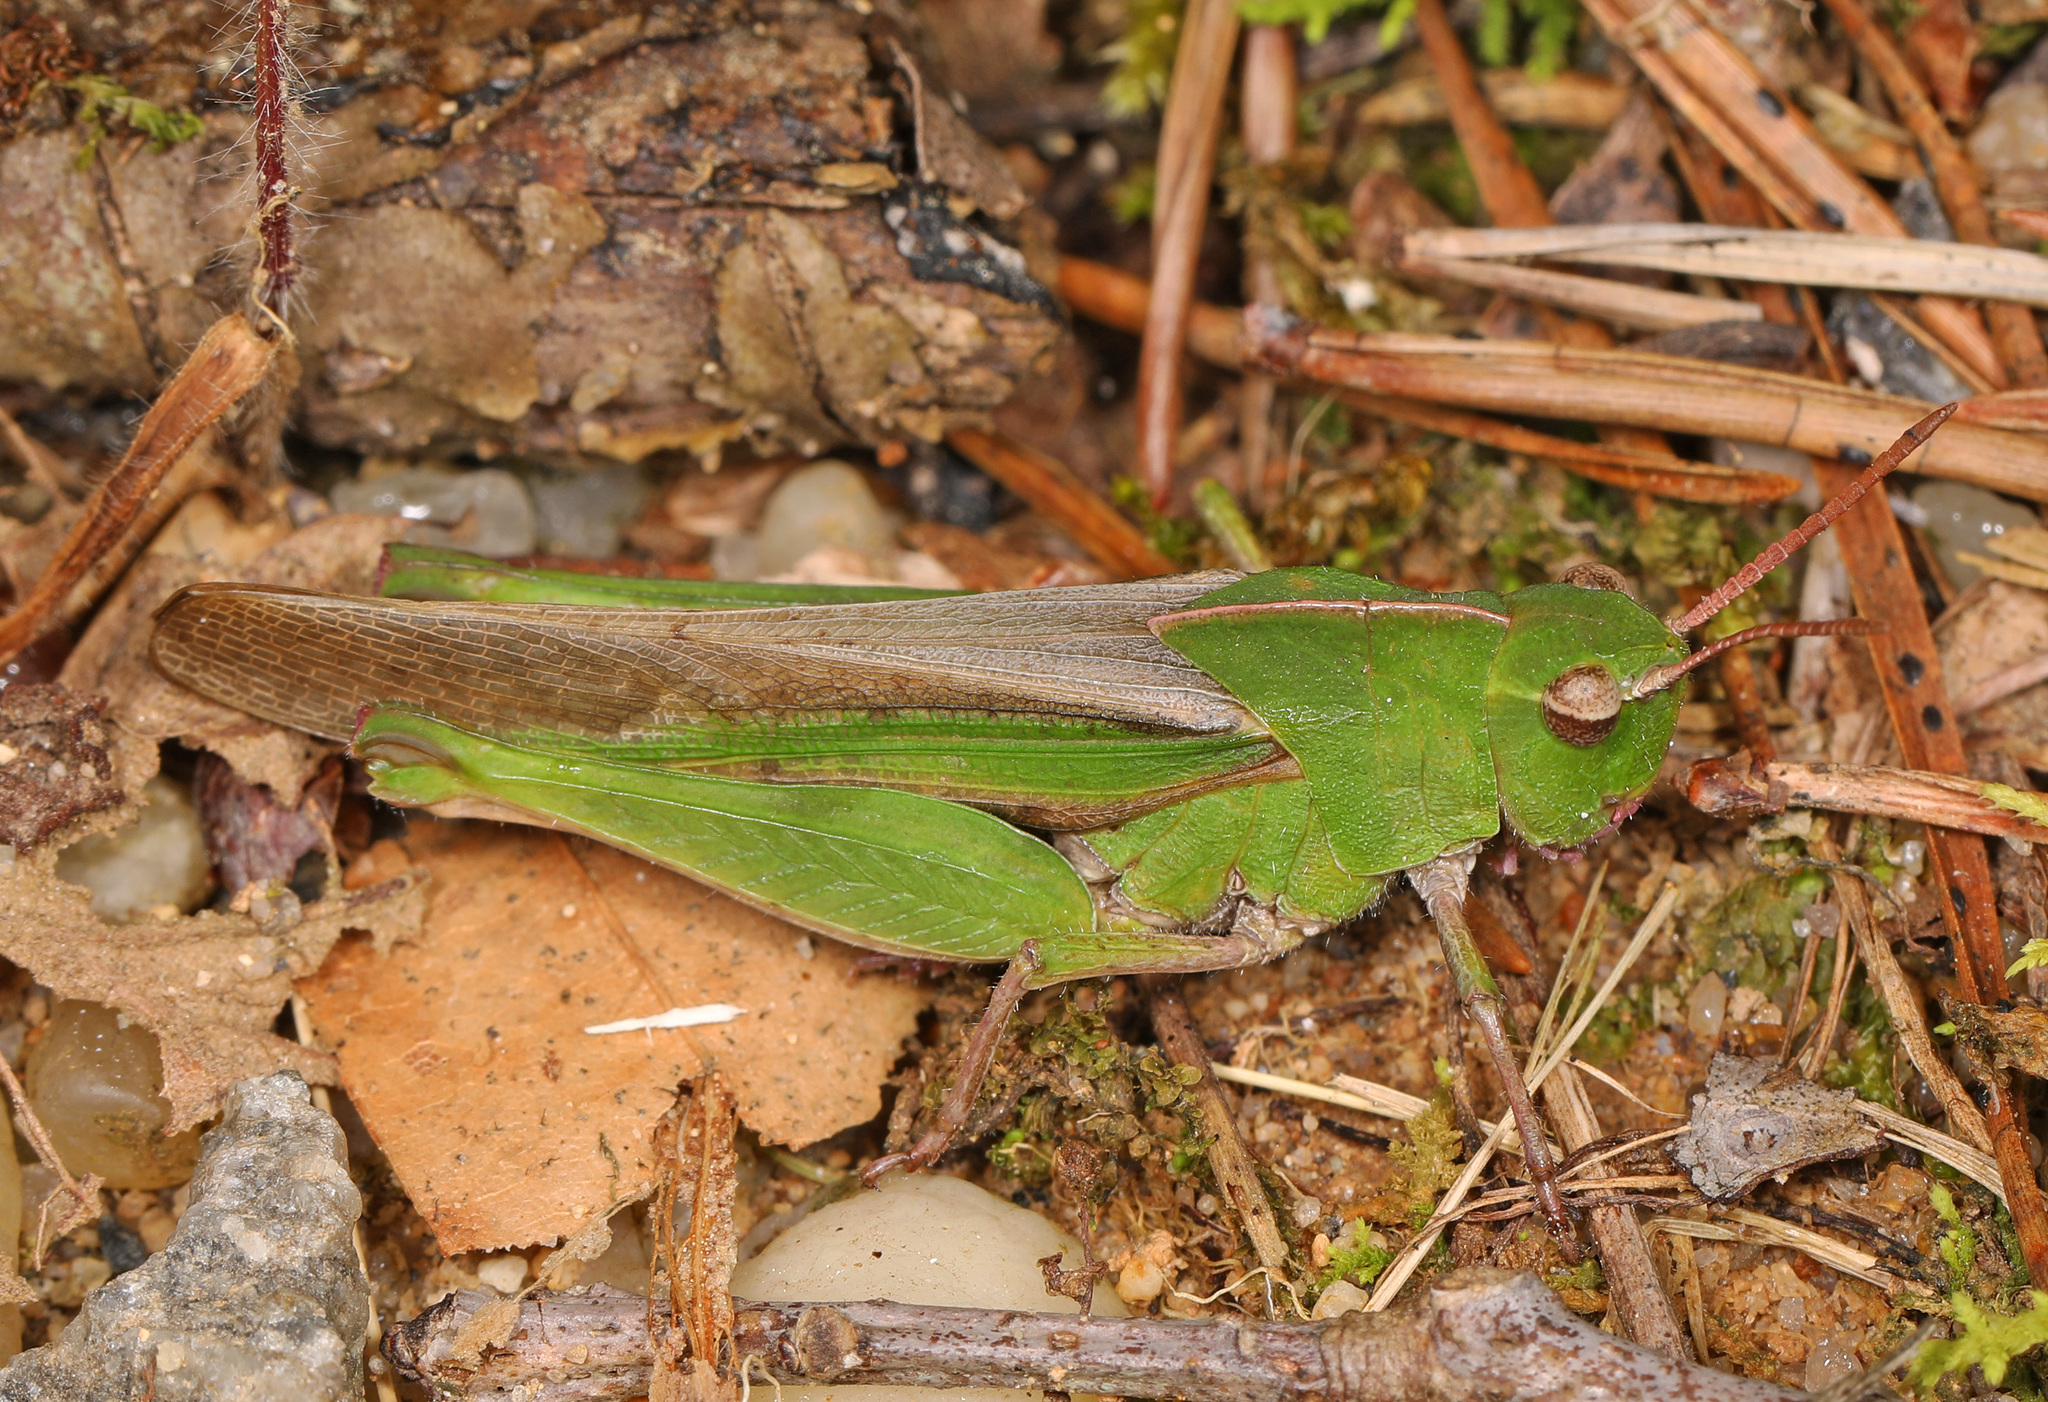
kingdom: Animalia
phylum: Arthropoda
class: Insecta
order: Orthoptera
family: Acrididae
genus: Chortophaga
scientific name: Chortophaga viridifasciata
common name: Green-striped grasshopper
